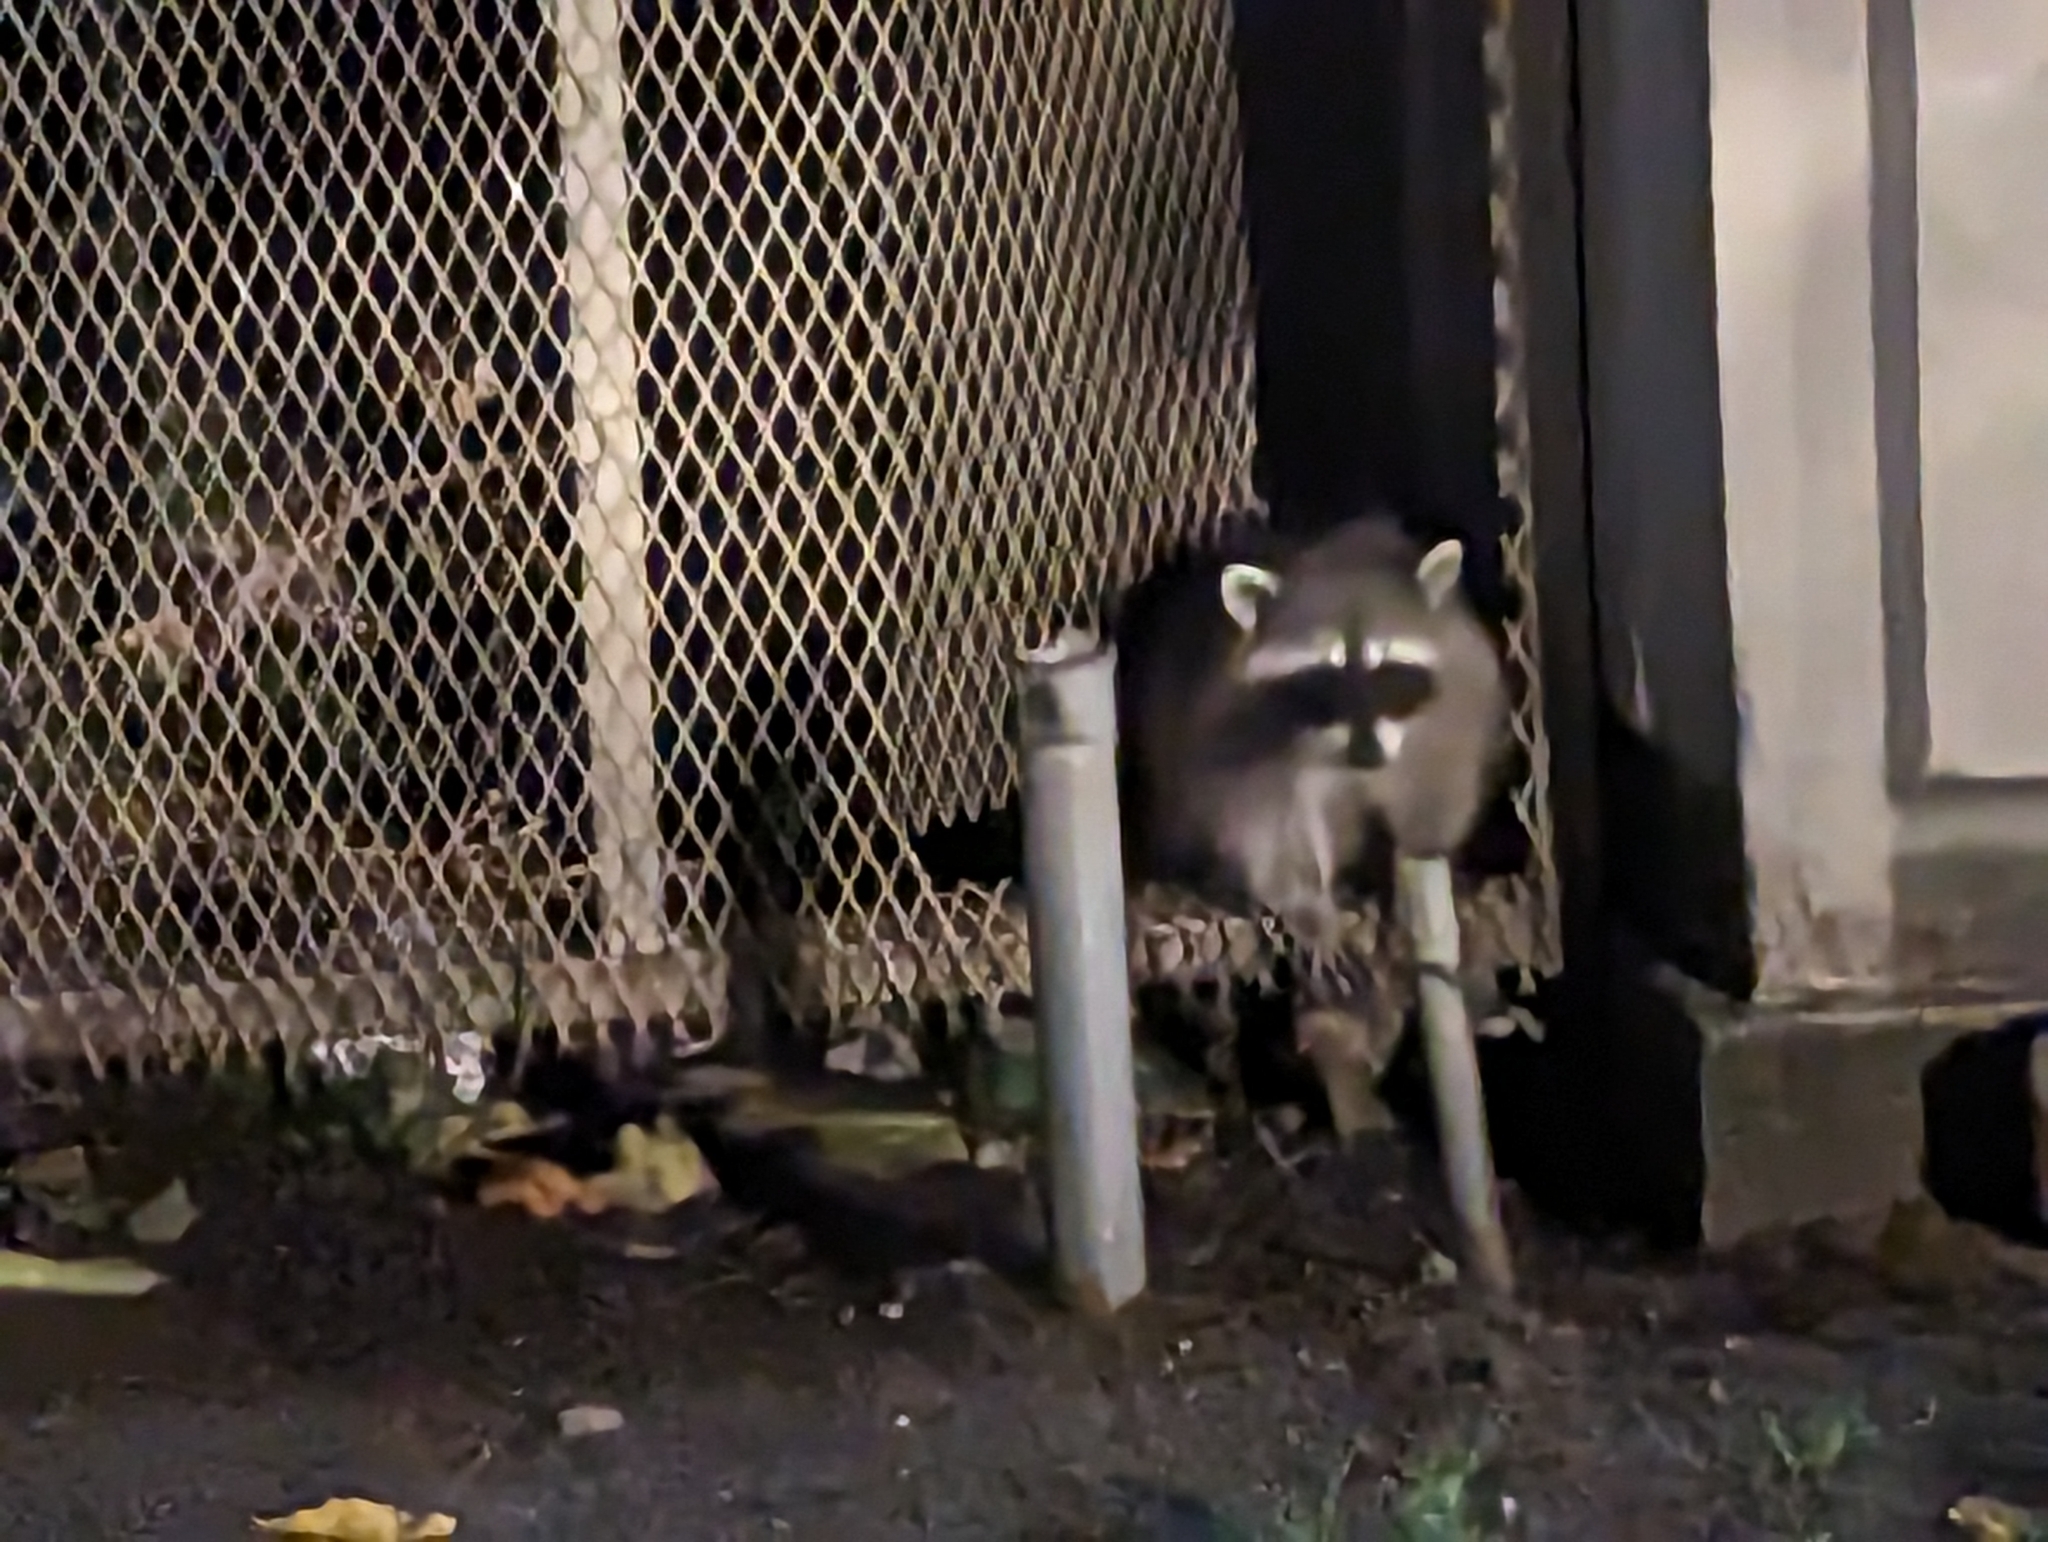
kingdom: Animalia
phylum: Chordata
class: Mammalia
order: Carnivora
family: Procyonidae
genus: Procyon
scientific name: Procyon lotor
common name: Raccoon
